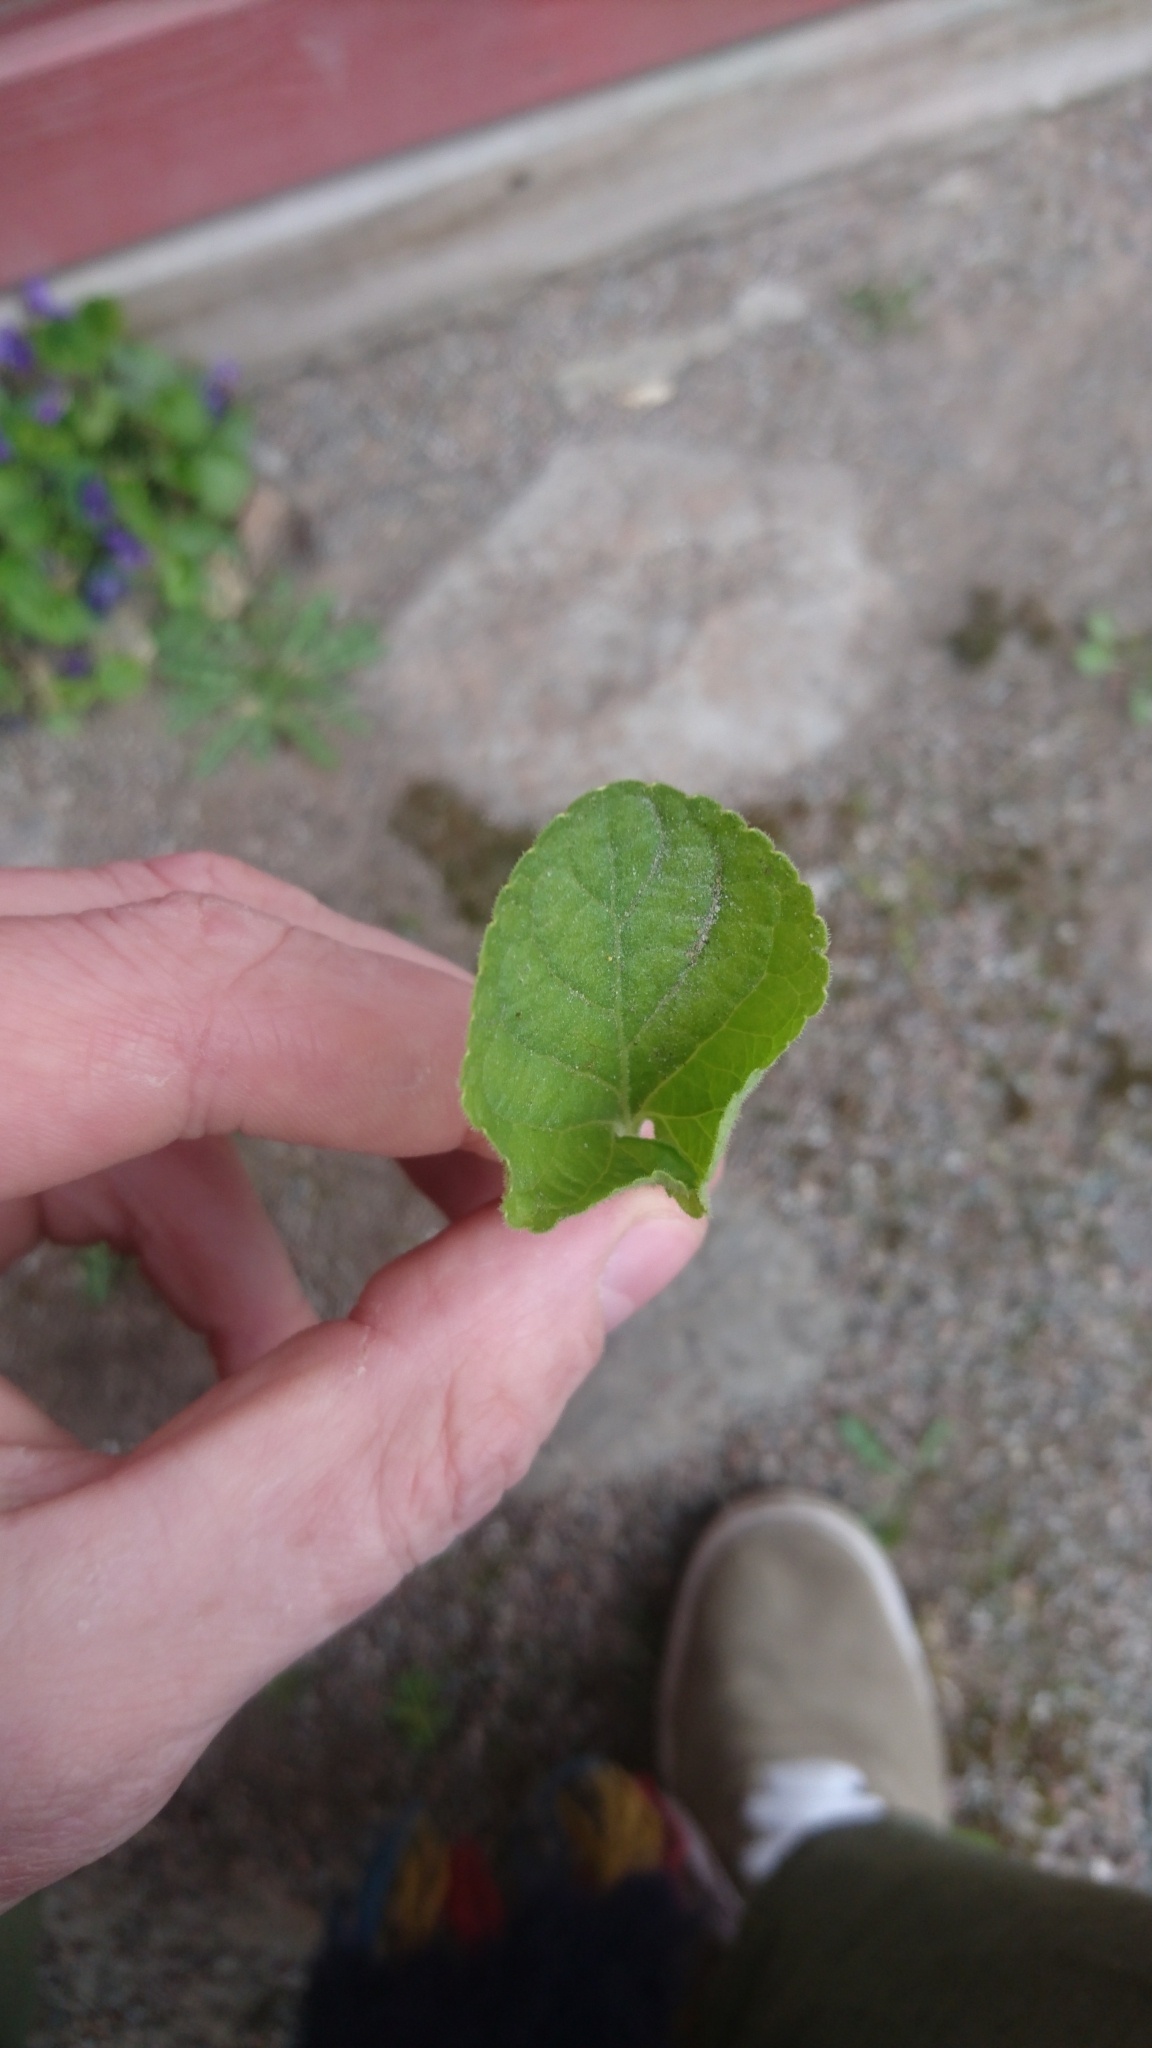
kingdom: Plantae
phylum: Tracheophyta
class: Magnoliopsida
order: Malpighiales
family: Violaceae
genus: Viola
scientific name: Viola odorata
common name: Sweet violet
